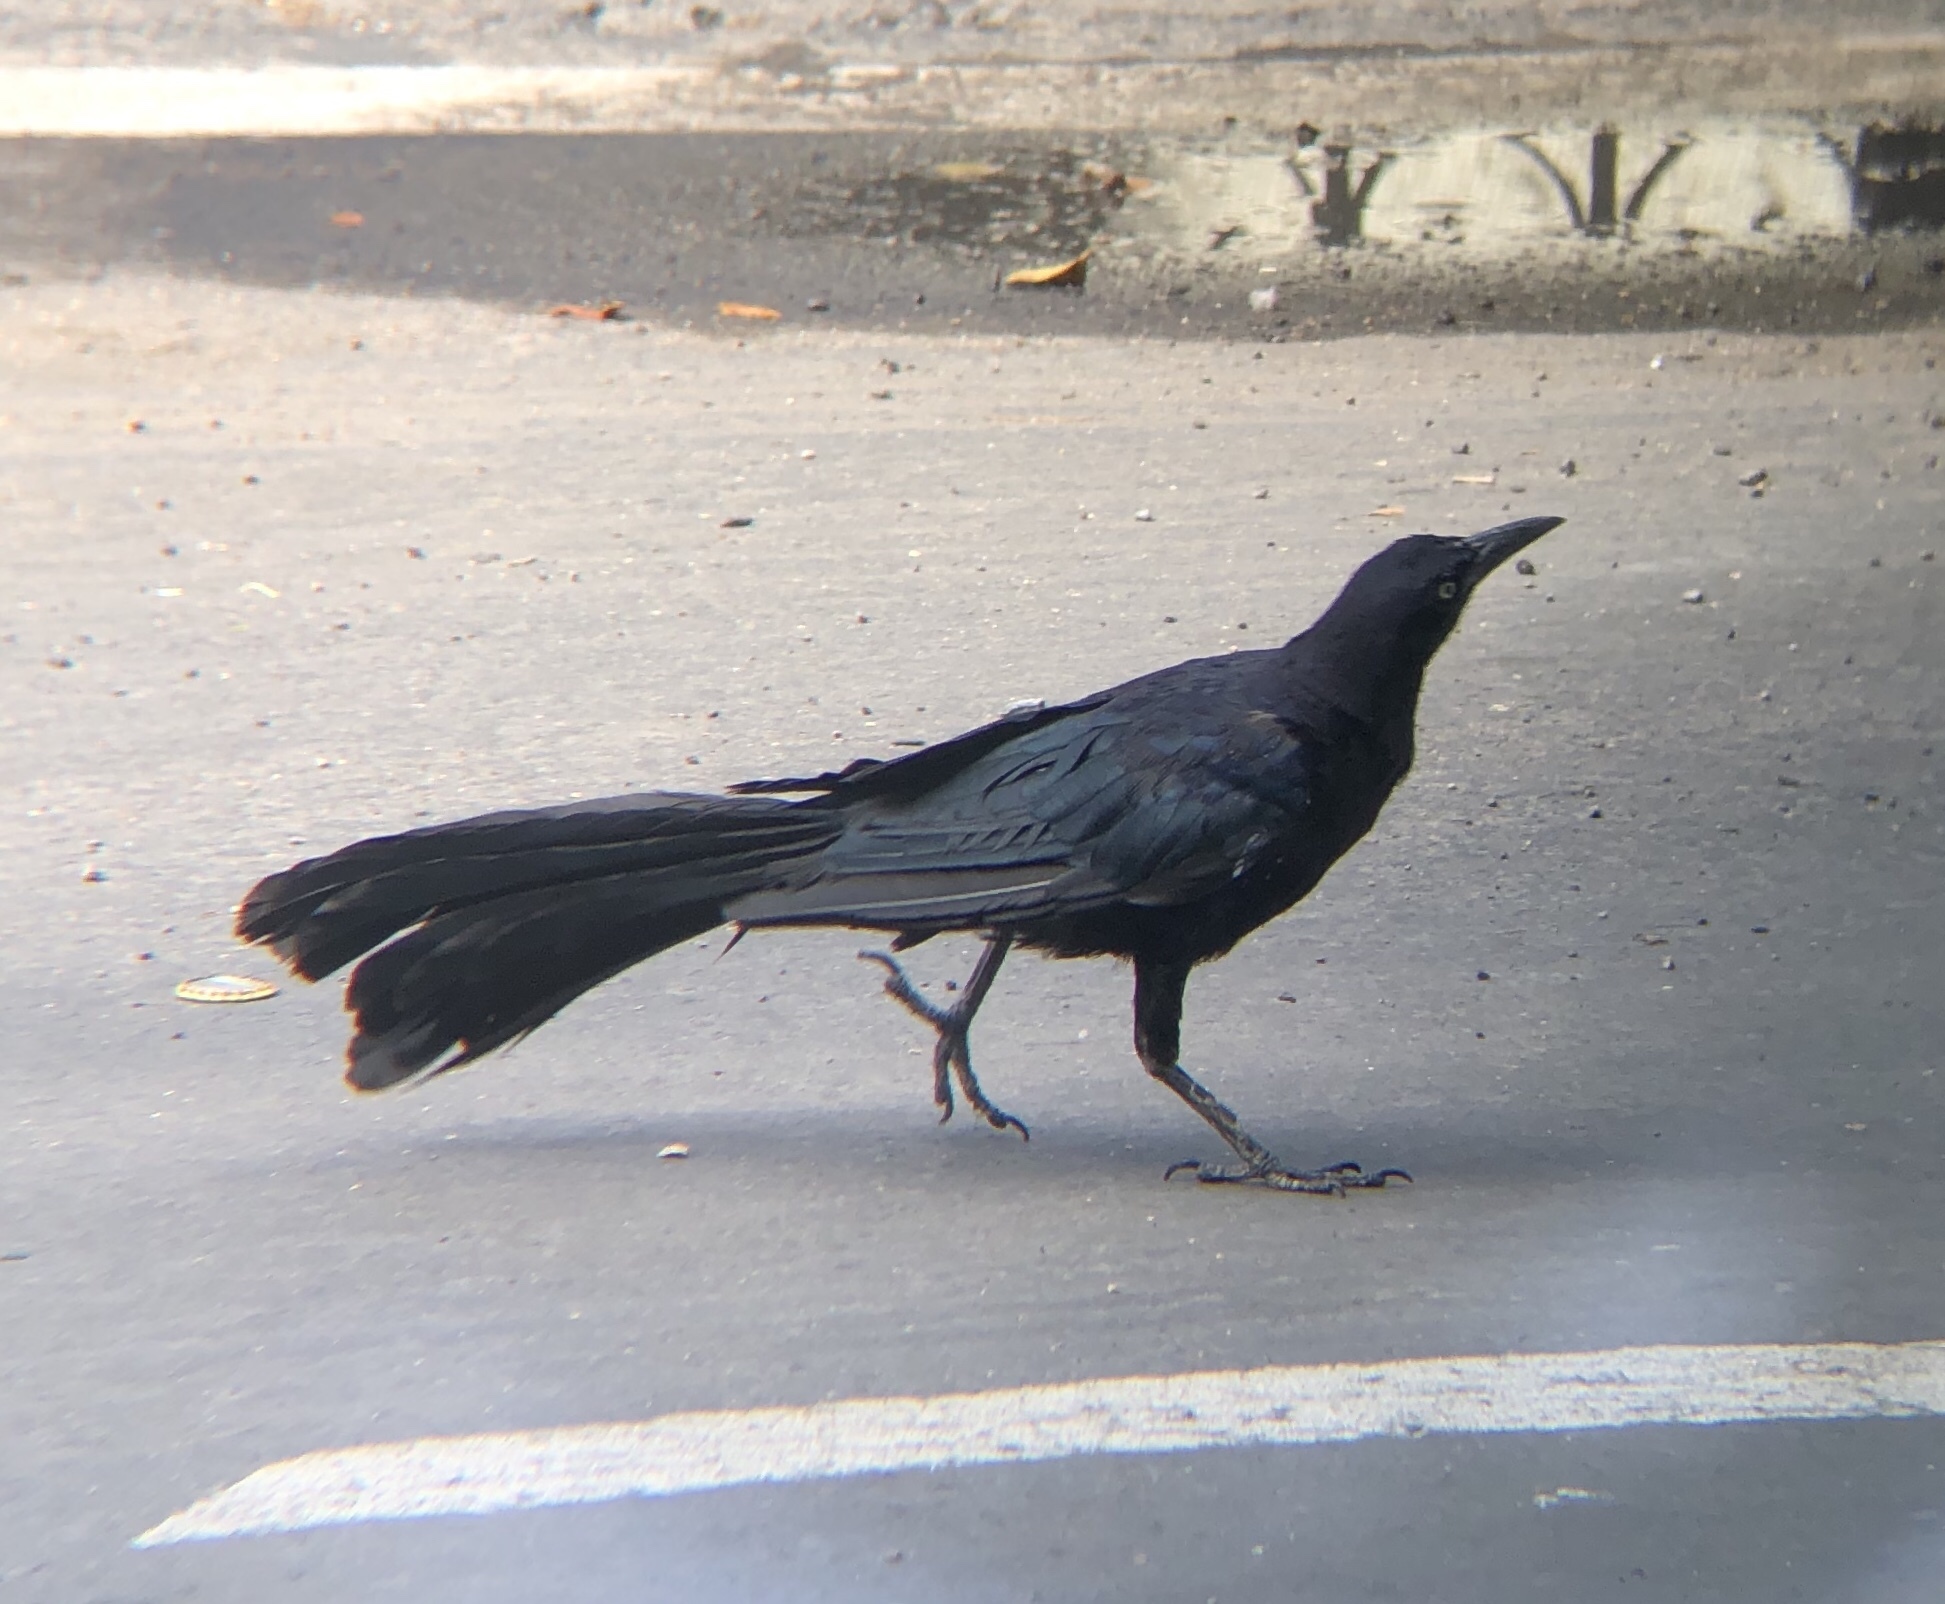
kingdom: Animalia
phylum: Chordata
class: Aves
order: Passeriformes
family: Icteridae
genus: Quiscalus
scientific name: Quiscalus mexicanus
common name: Great-tailed grackle
